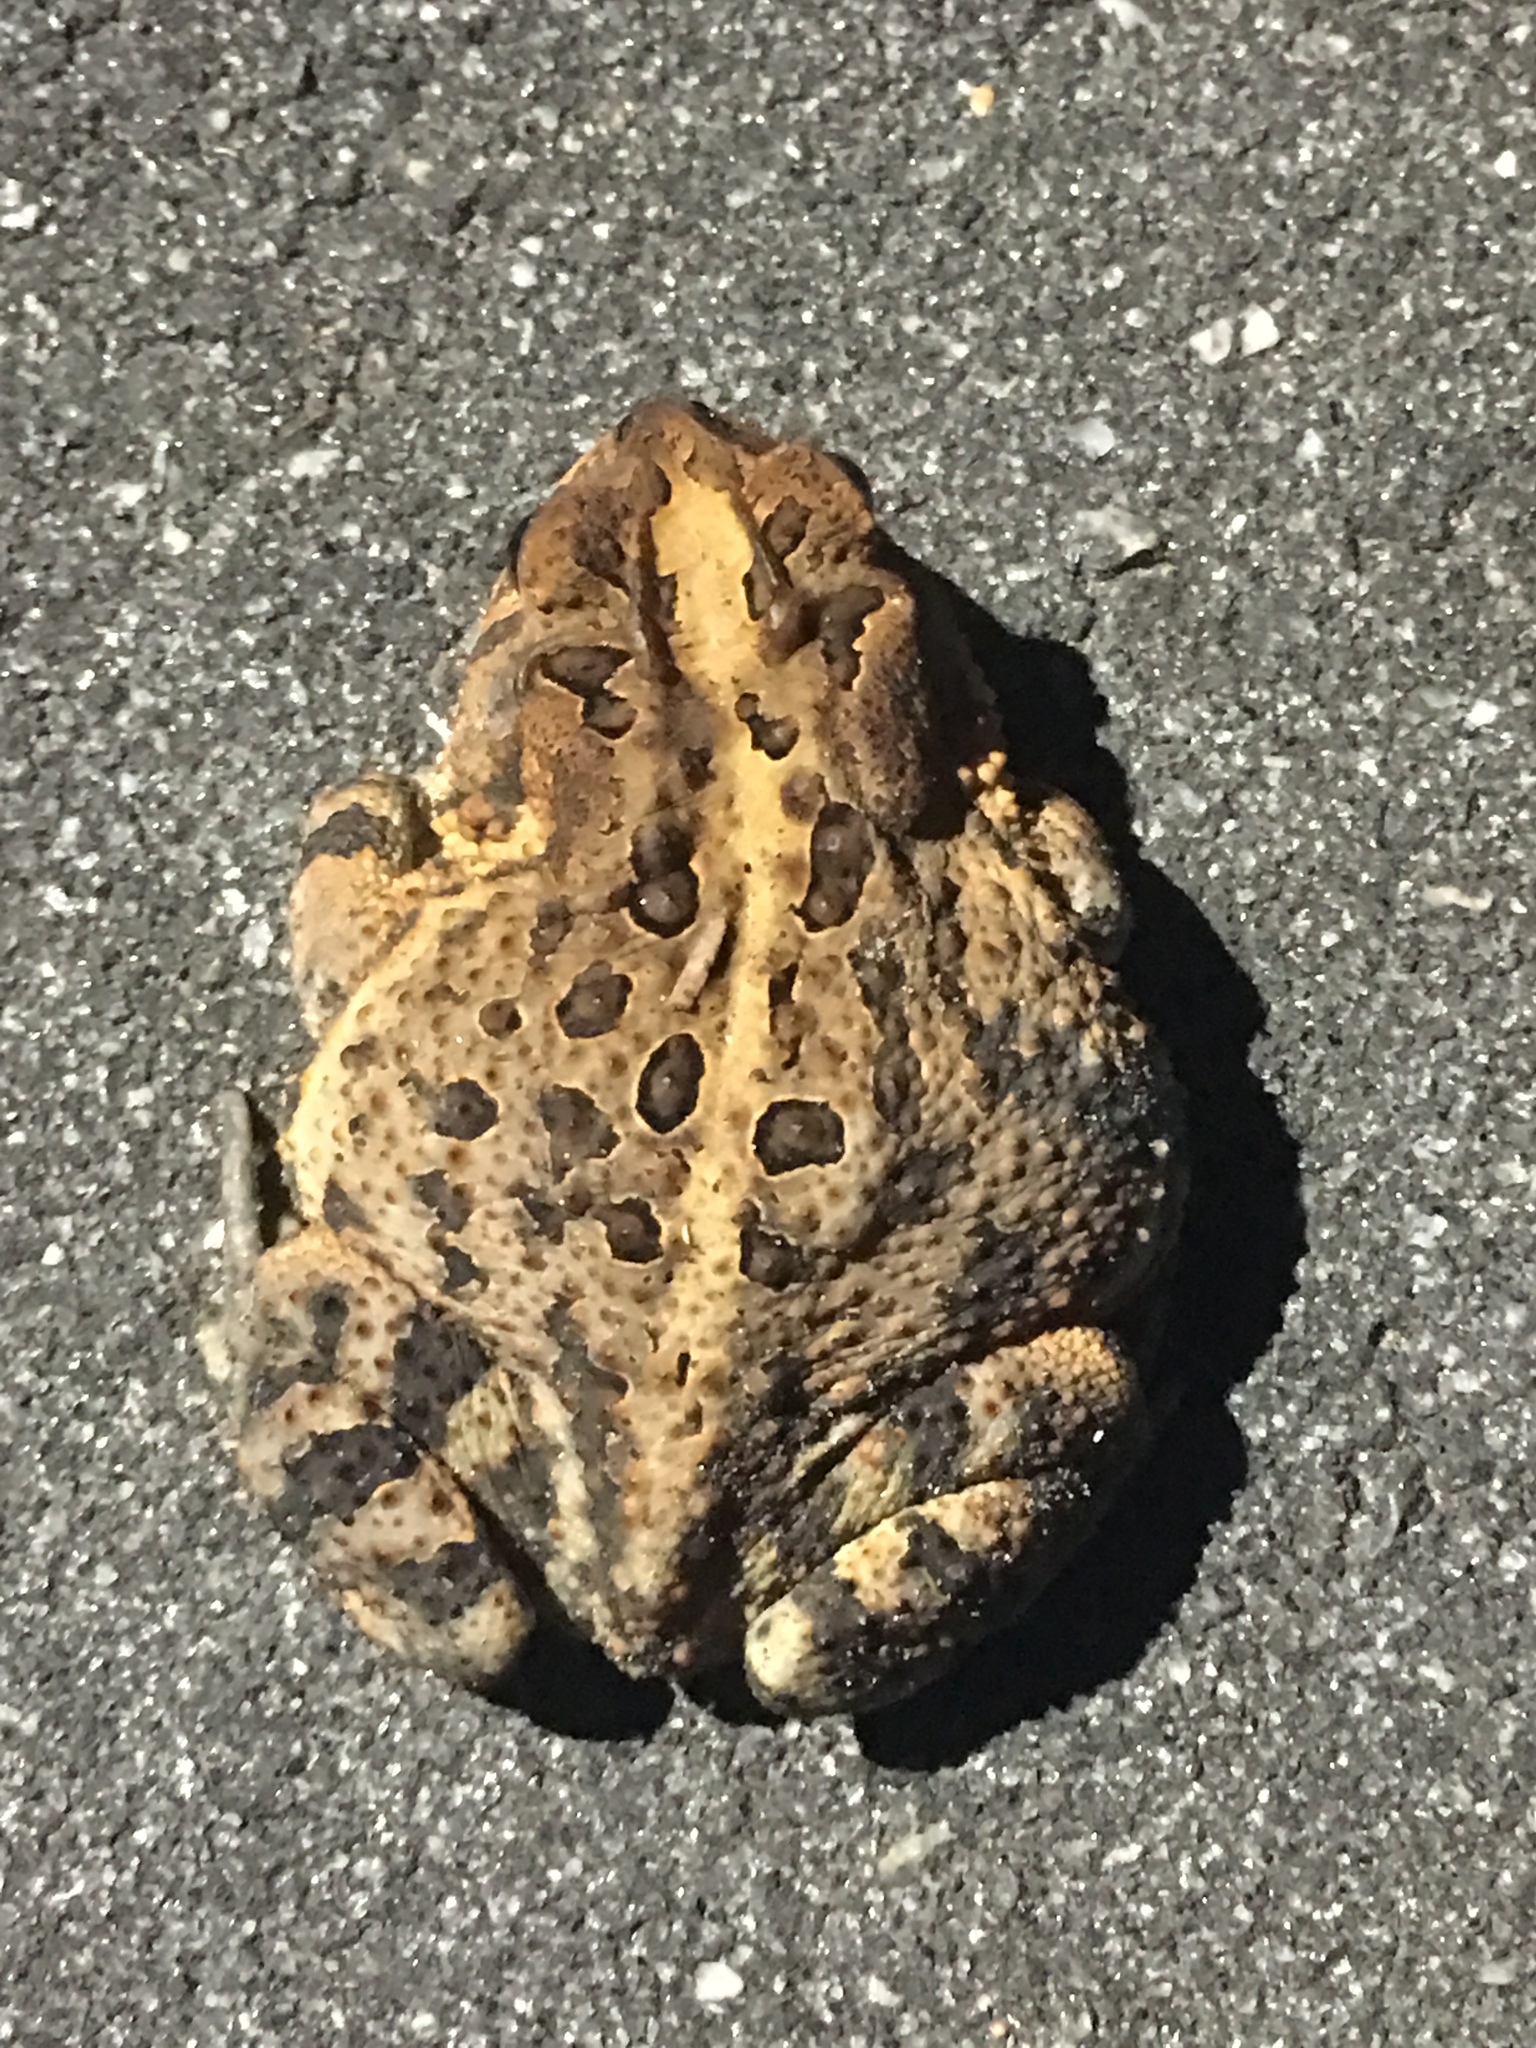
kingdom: Animalia
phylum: Chordata
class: Amphibia
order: Anura
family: Bufonidae
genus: Anaxyrus
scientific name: Anaxyrus terrestris
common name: Southern toad
